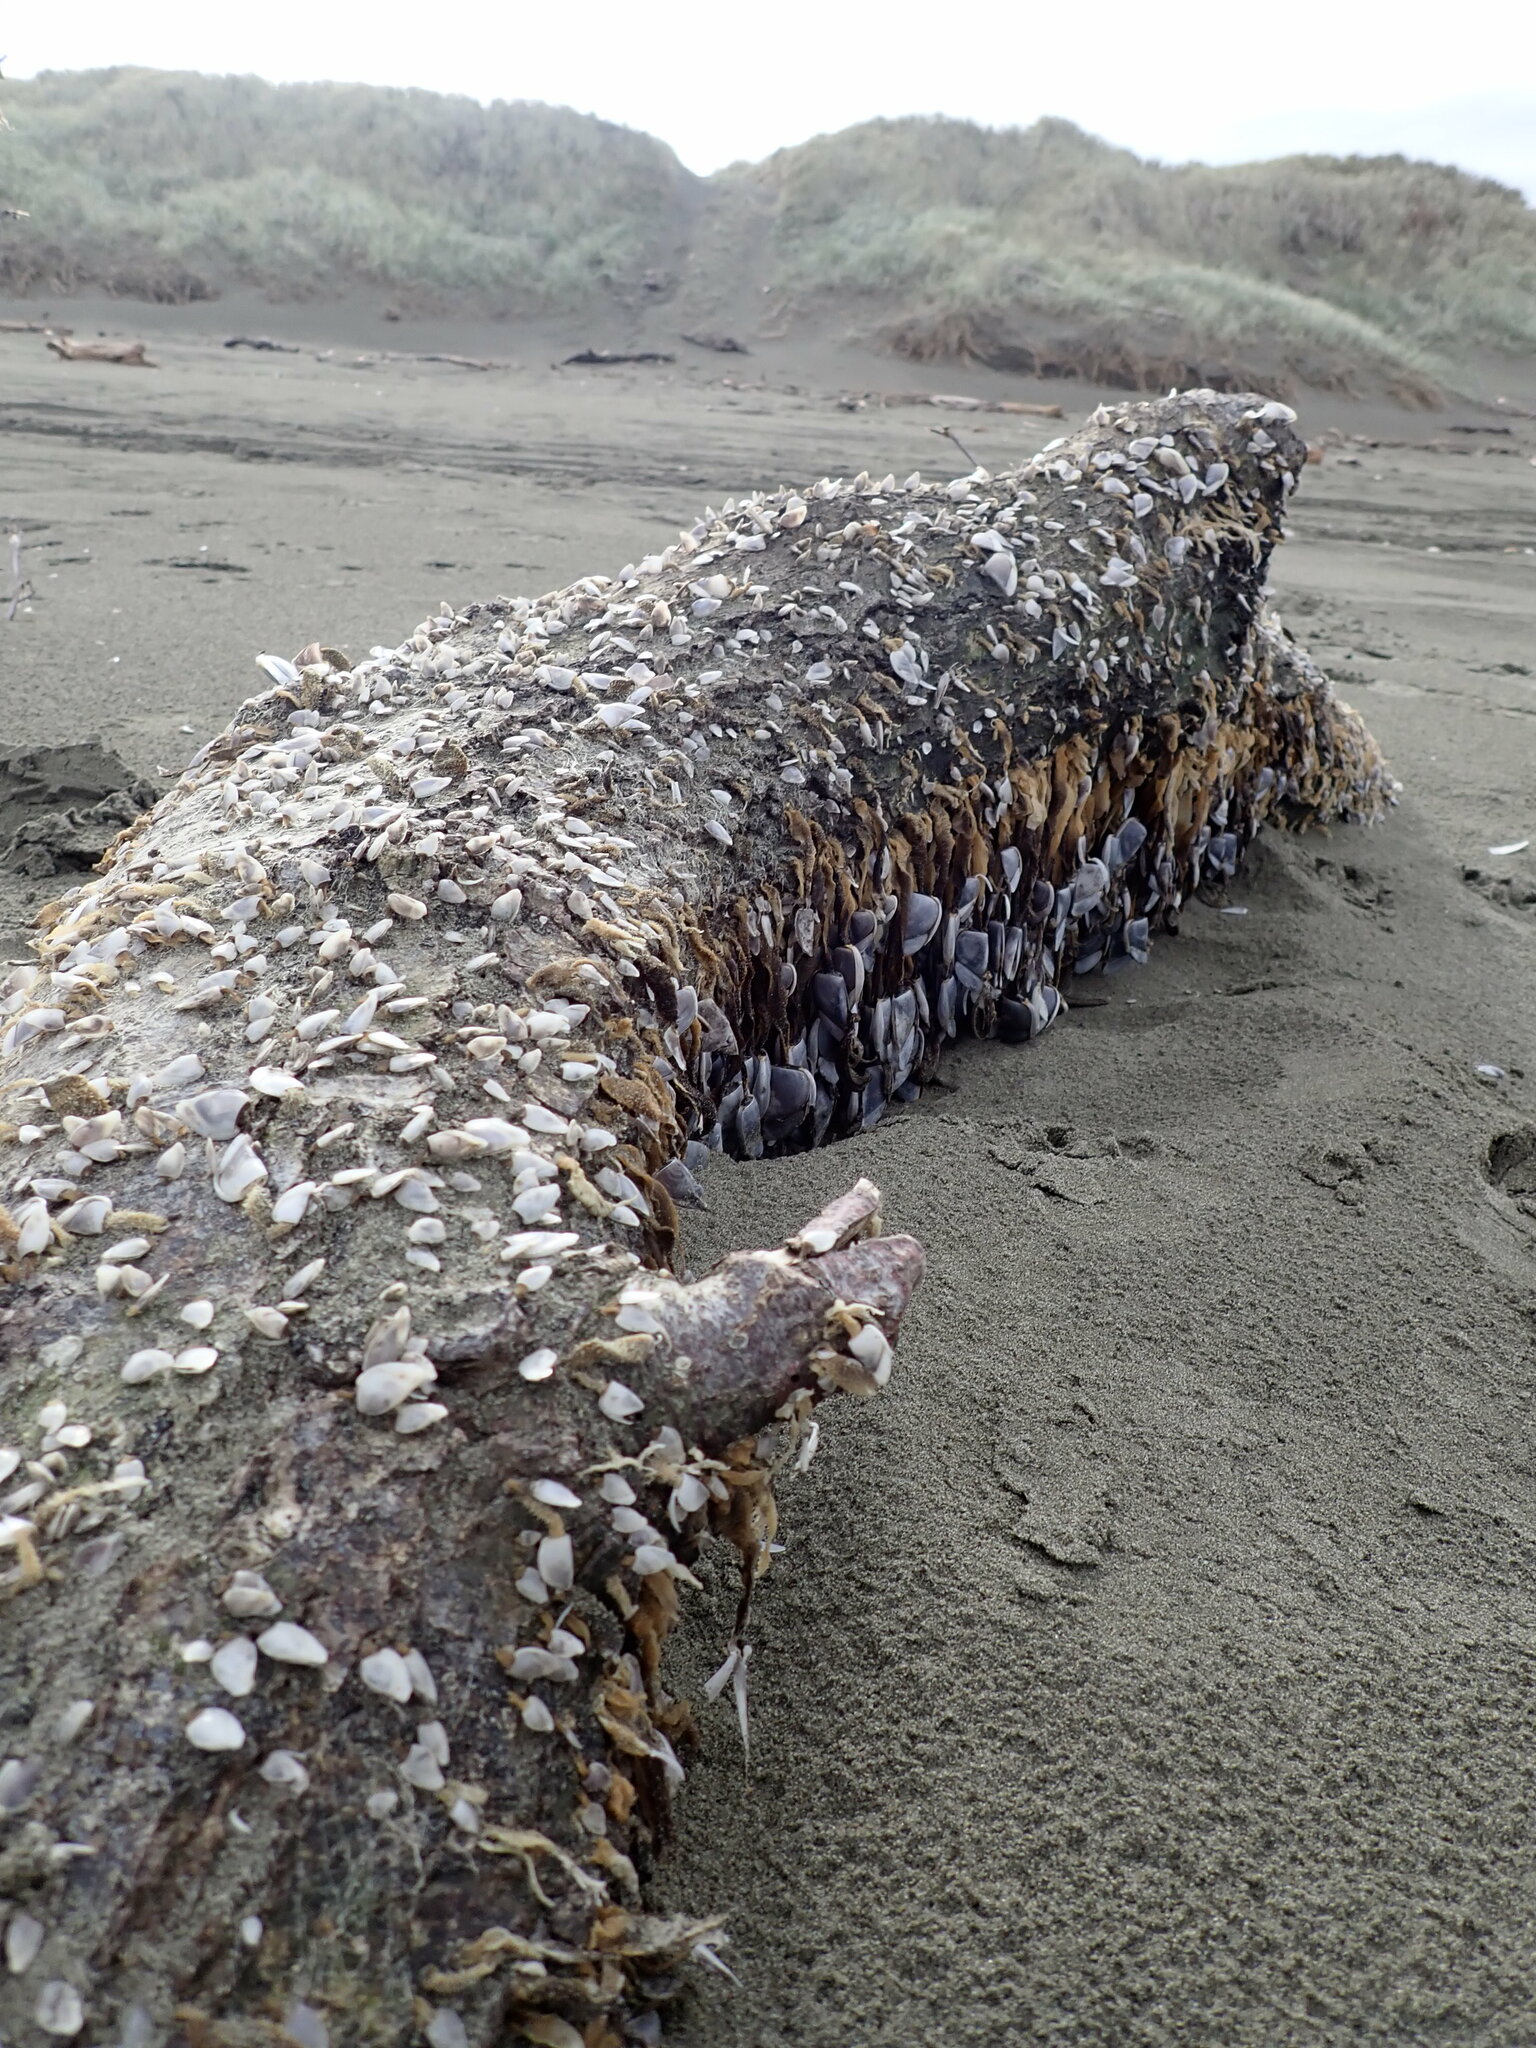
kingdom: Animalia
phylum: Arthropoda
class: Maxillopoda
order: Pedunculata
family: Lepadidae
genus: Lepas
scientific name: Lepas testudinata
